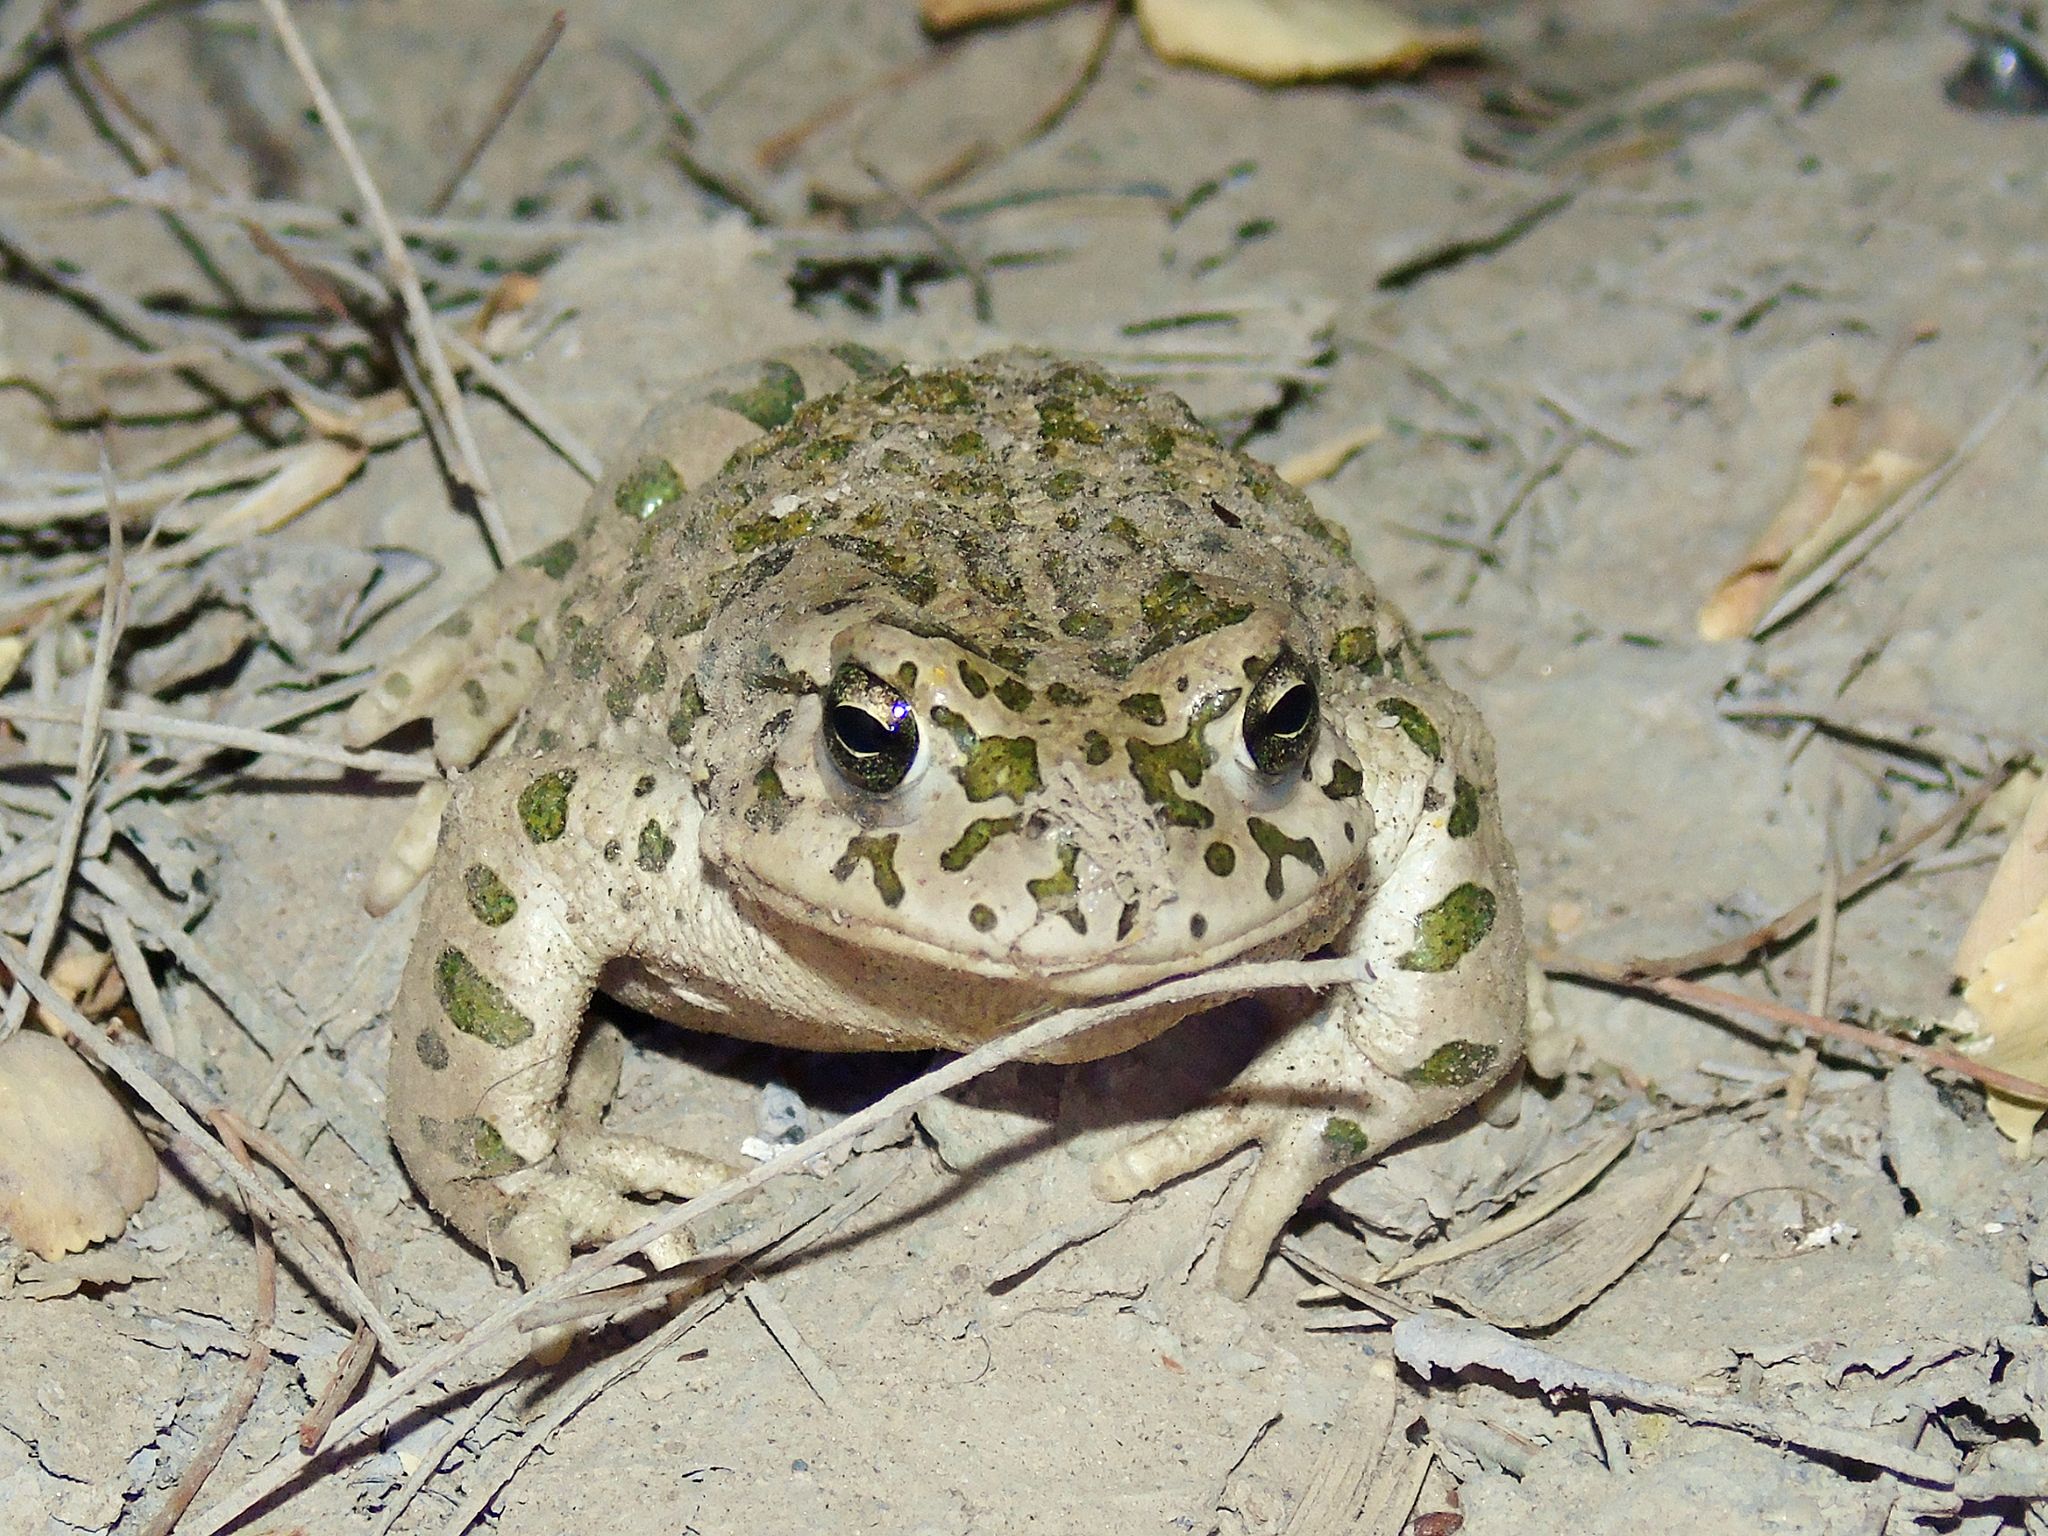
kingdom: Animalia
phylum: Chordata
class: Amphibia
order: Anura
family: Bufonidae
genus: Bufotes
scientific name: Bufotes turanensis
